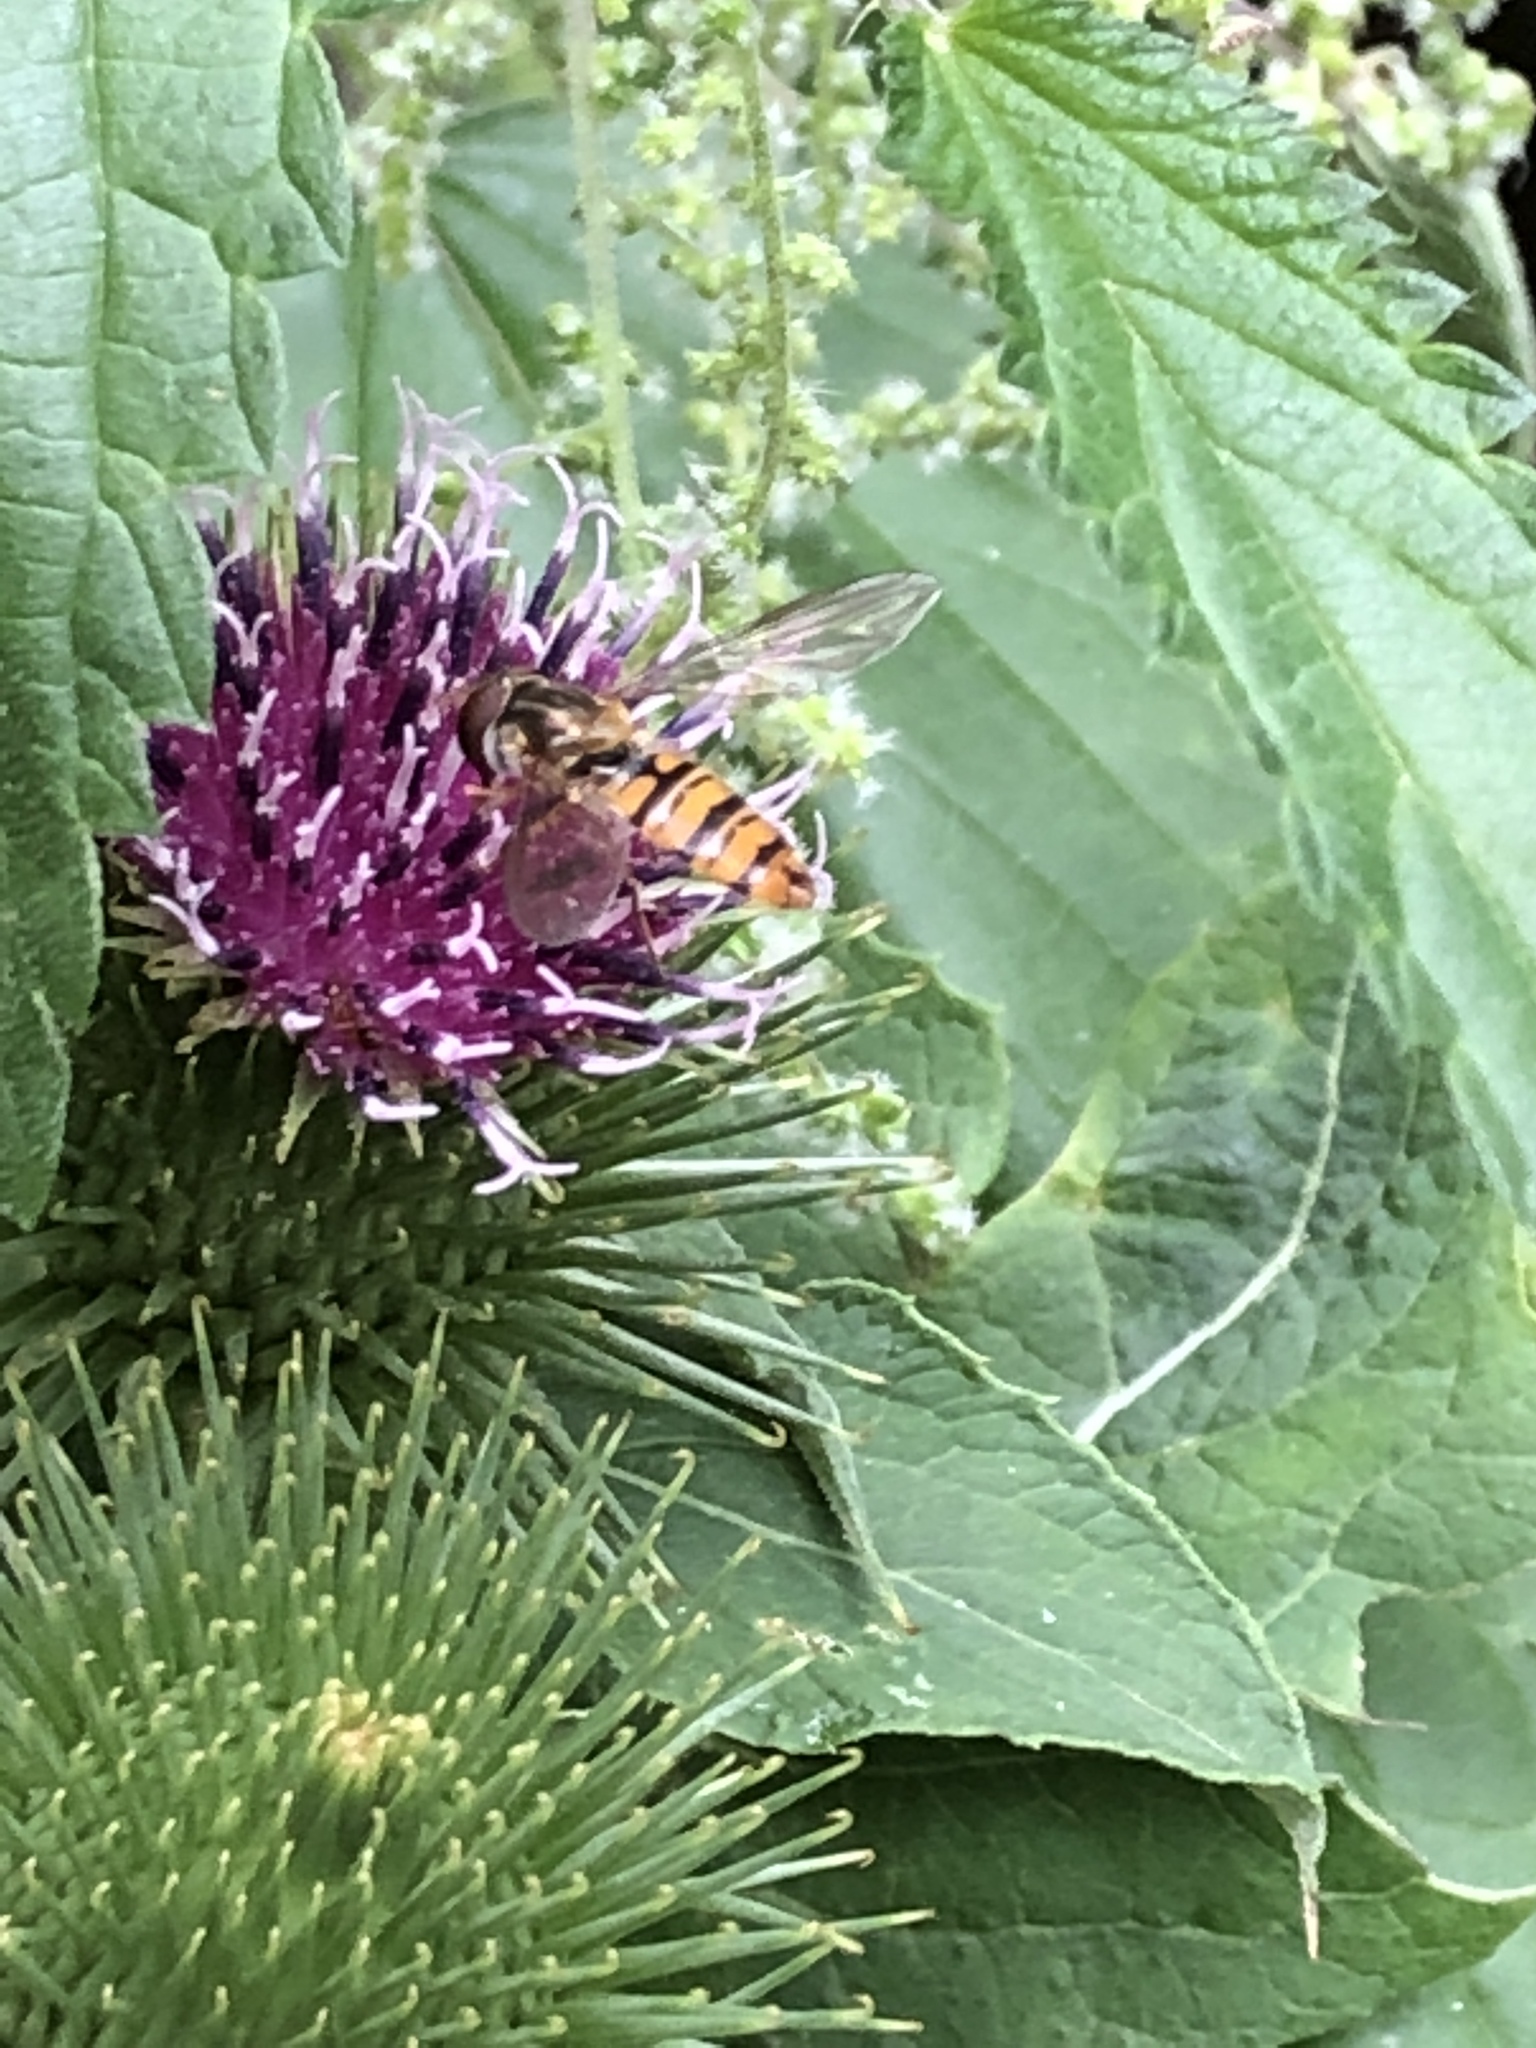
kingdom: Animalia
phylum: Arthropoda
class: Insecta
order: Diptera
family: Syrphidae
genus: Episyrphus
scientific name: Episyrphus balteatus
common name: Marmalade hoverfly
